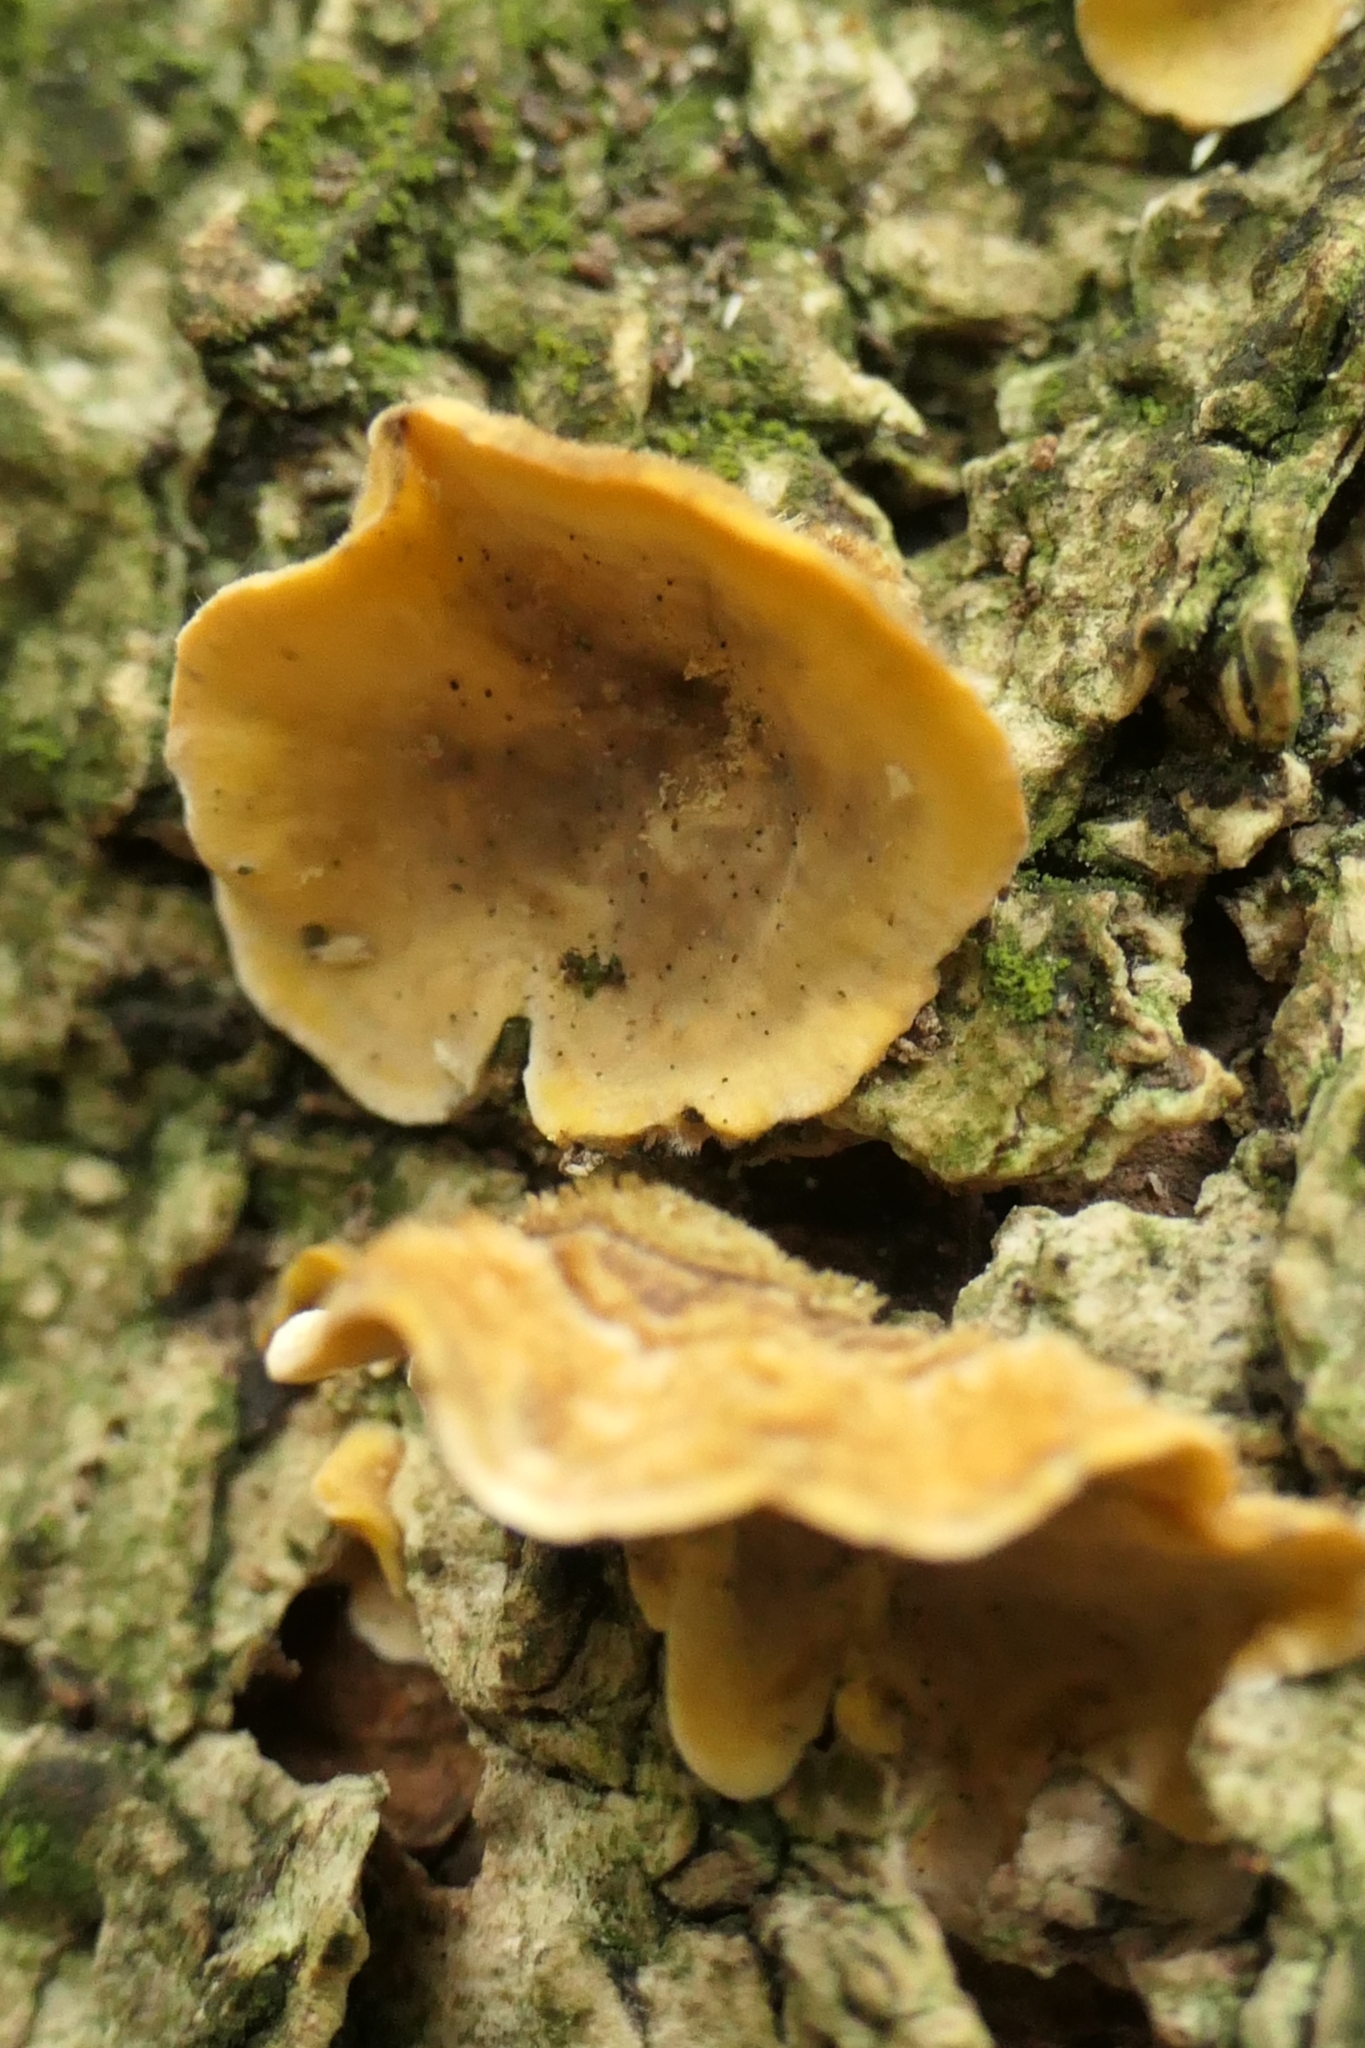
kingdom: Fungi
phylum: Basidiomycota
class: Agaricomycetes
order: Russulales
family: Stereaceae
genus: Stereum
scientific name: Stereum hirsutum
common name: Hairy curtain crust
